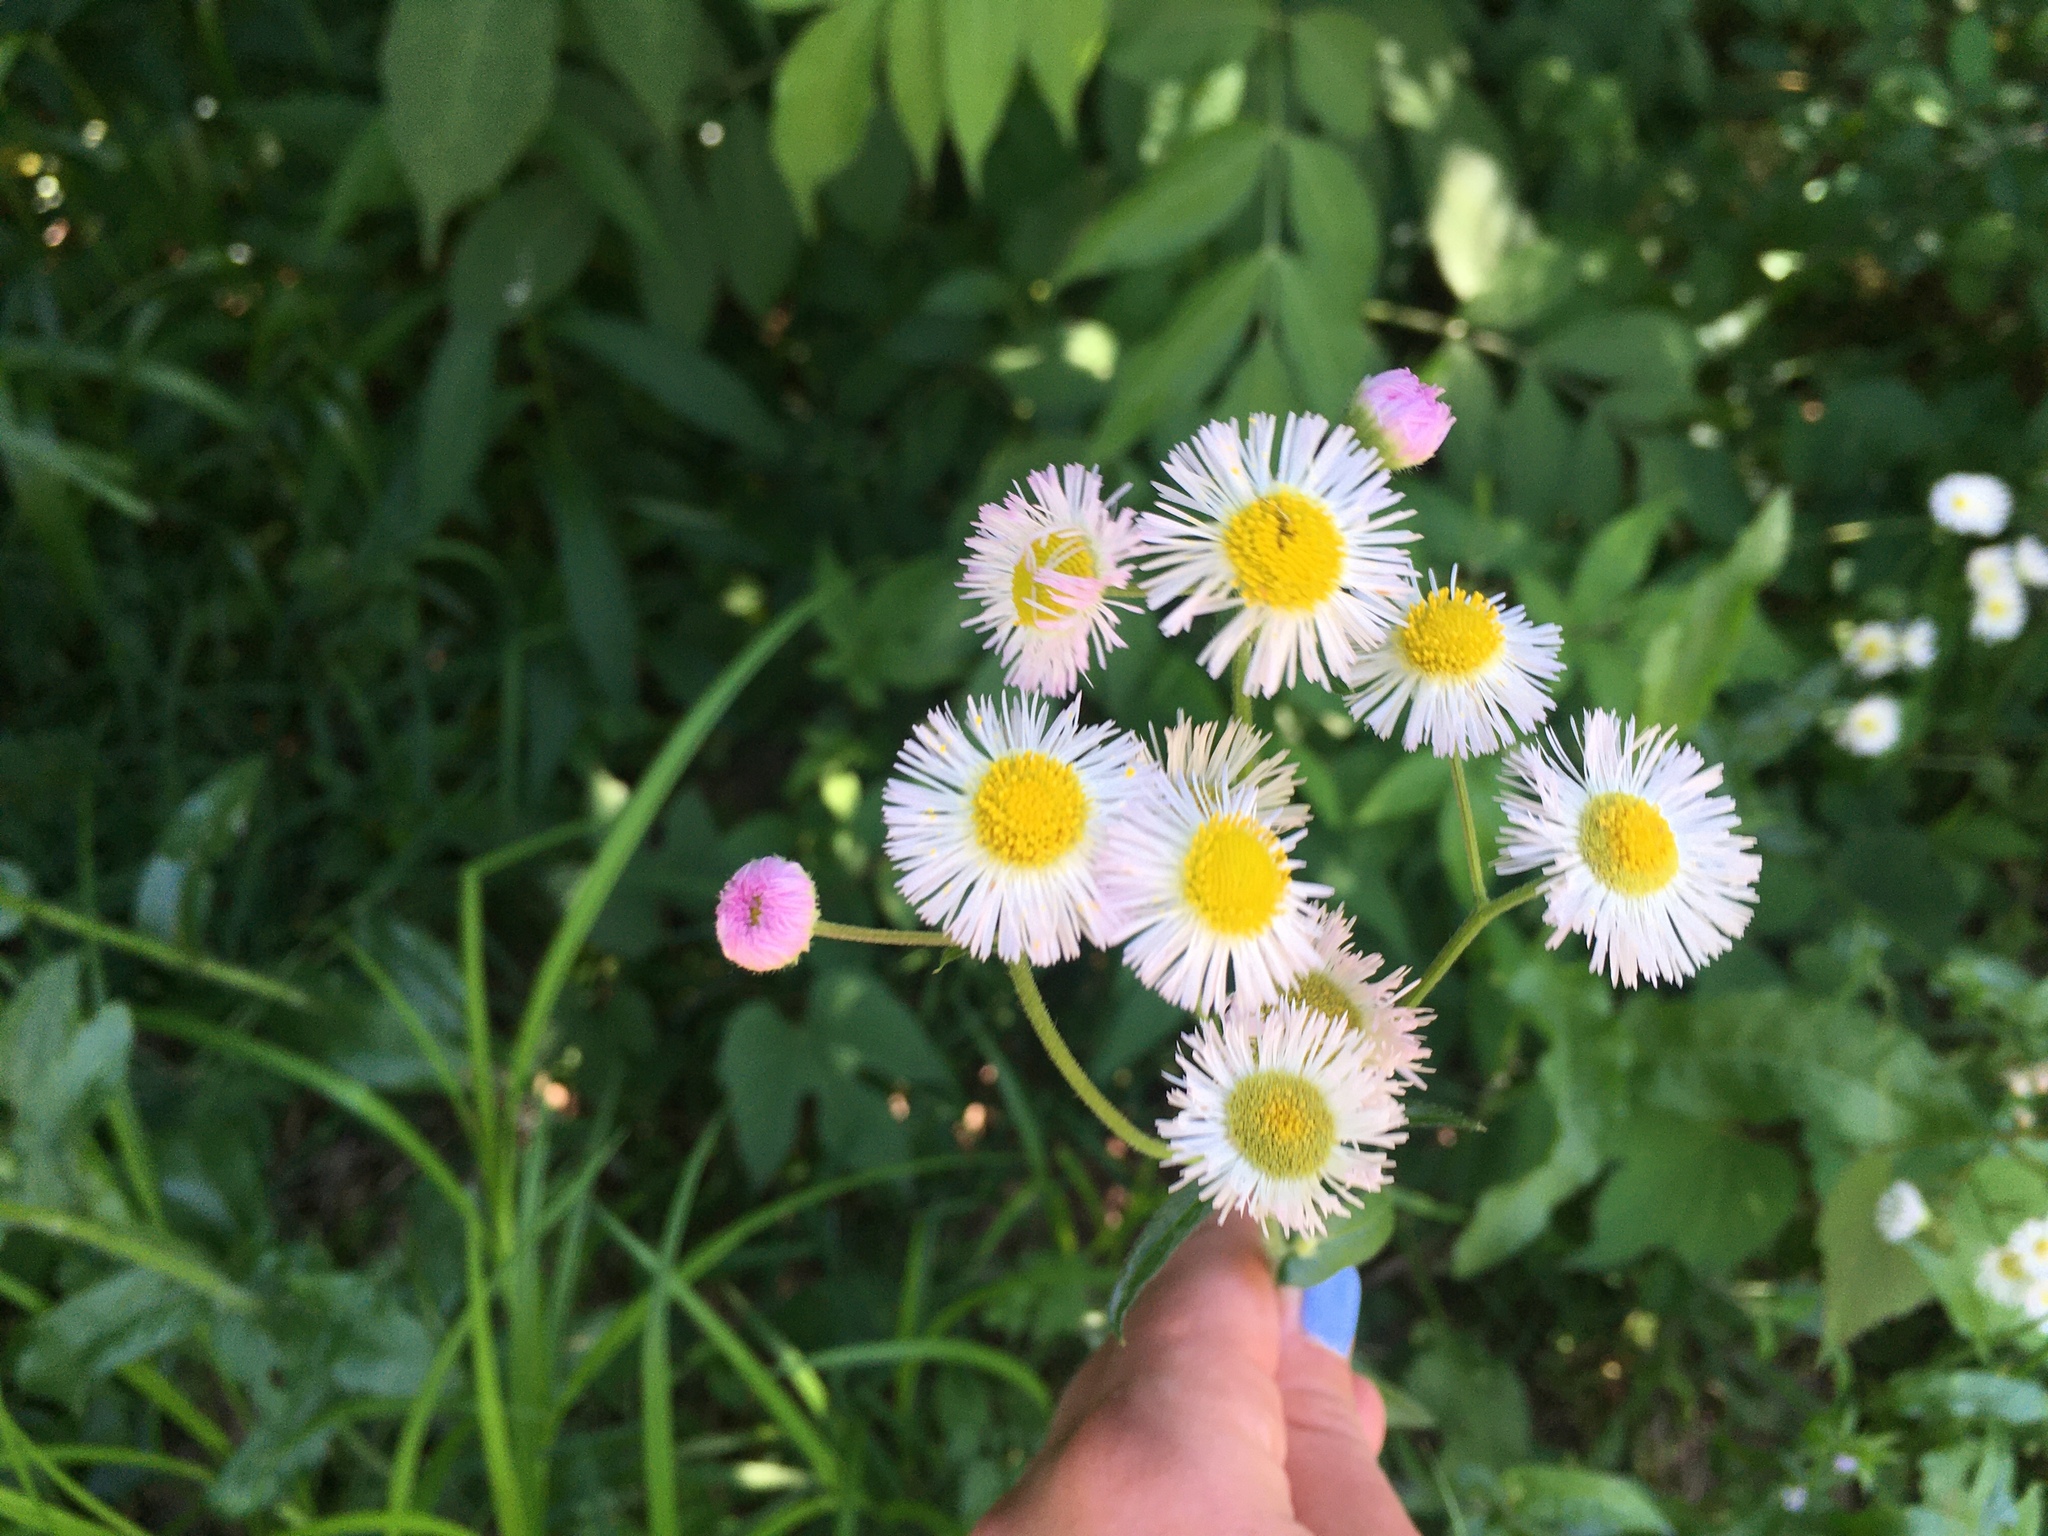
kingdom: Plantae
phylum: Tracheophyta
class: Magnoliopsida
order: Asterales
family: Asteraceae
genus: Erigeron
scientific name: Erigeron philadelphicus
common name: Robin's-plantain
